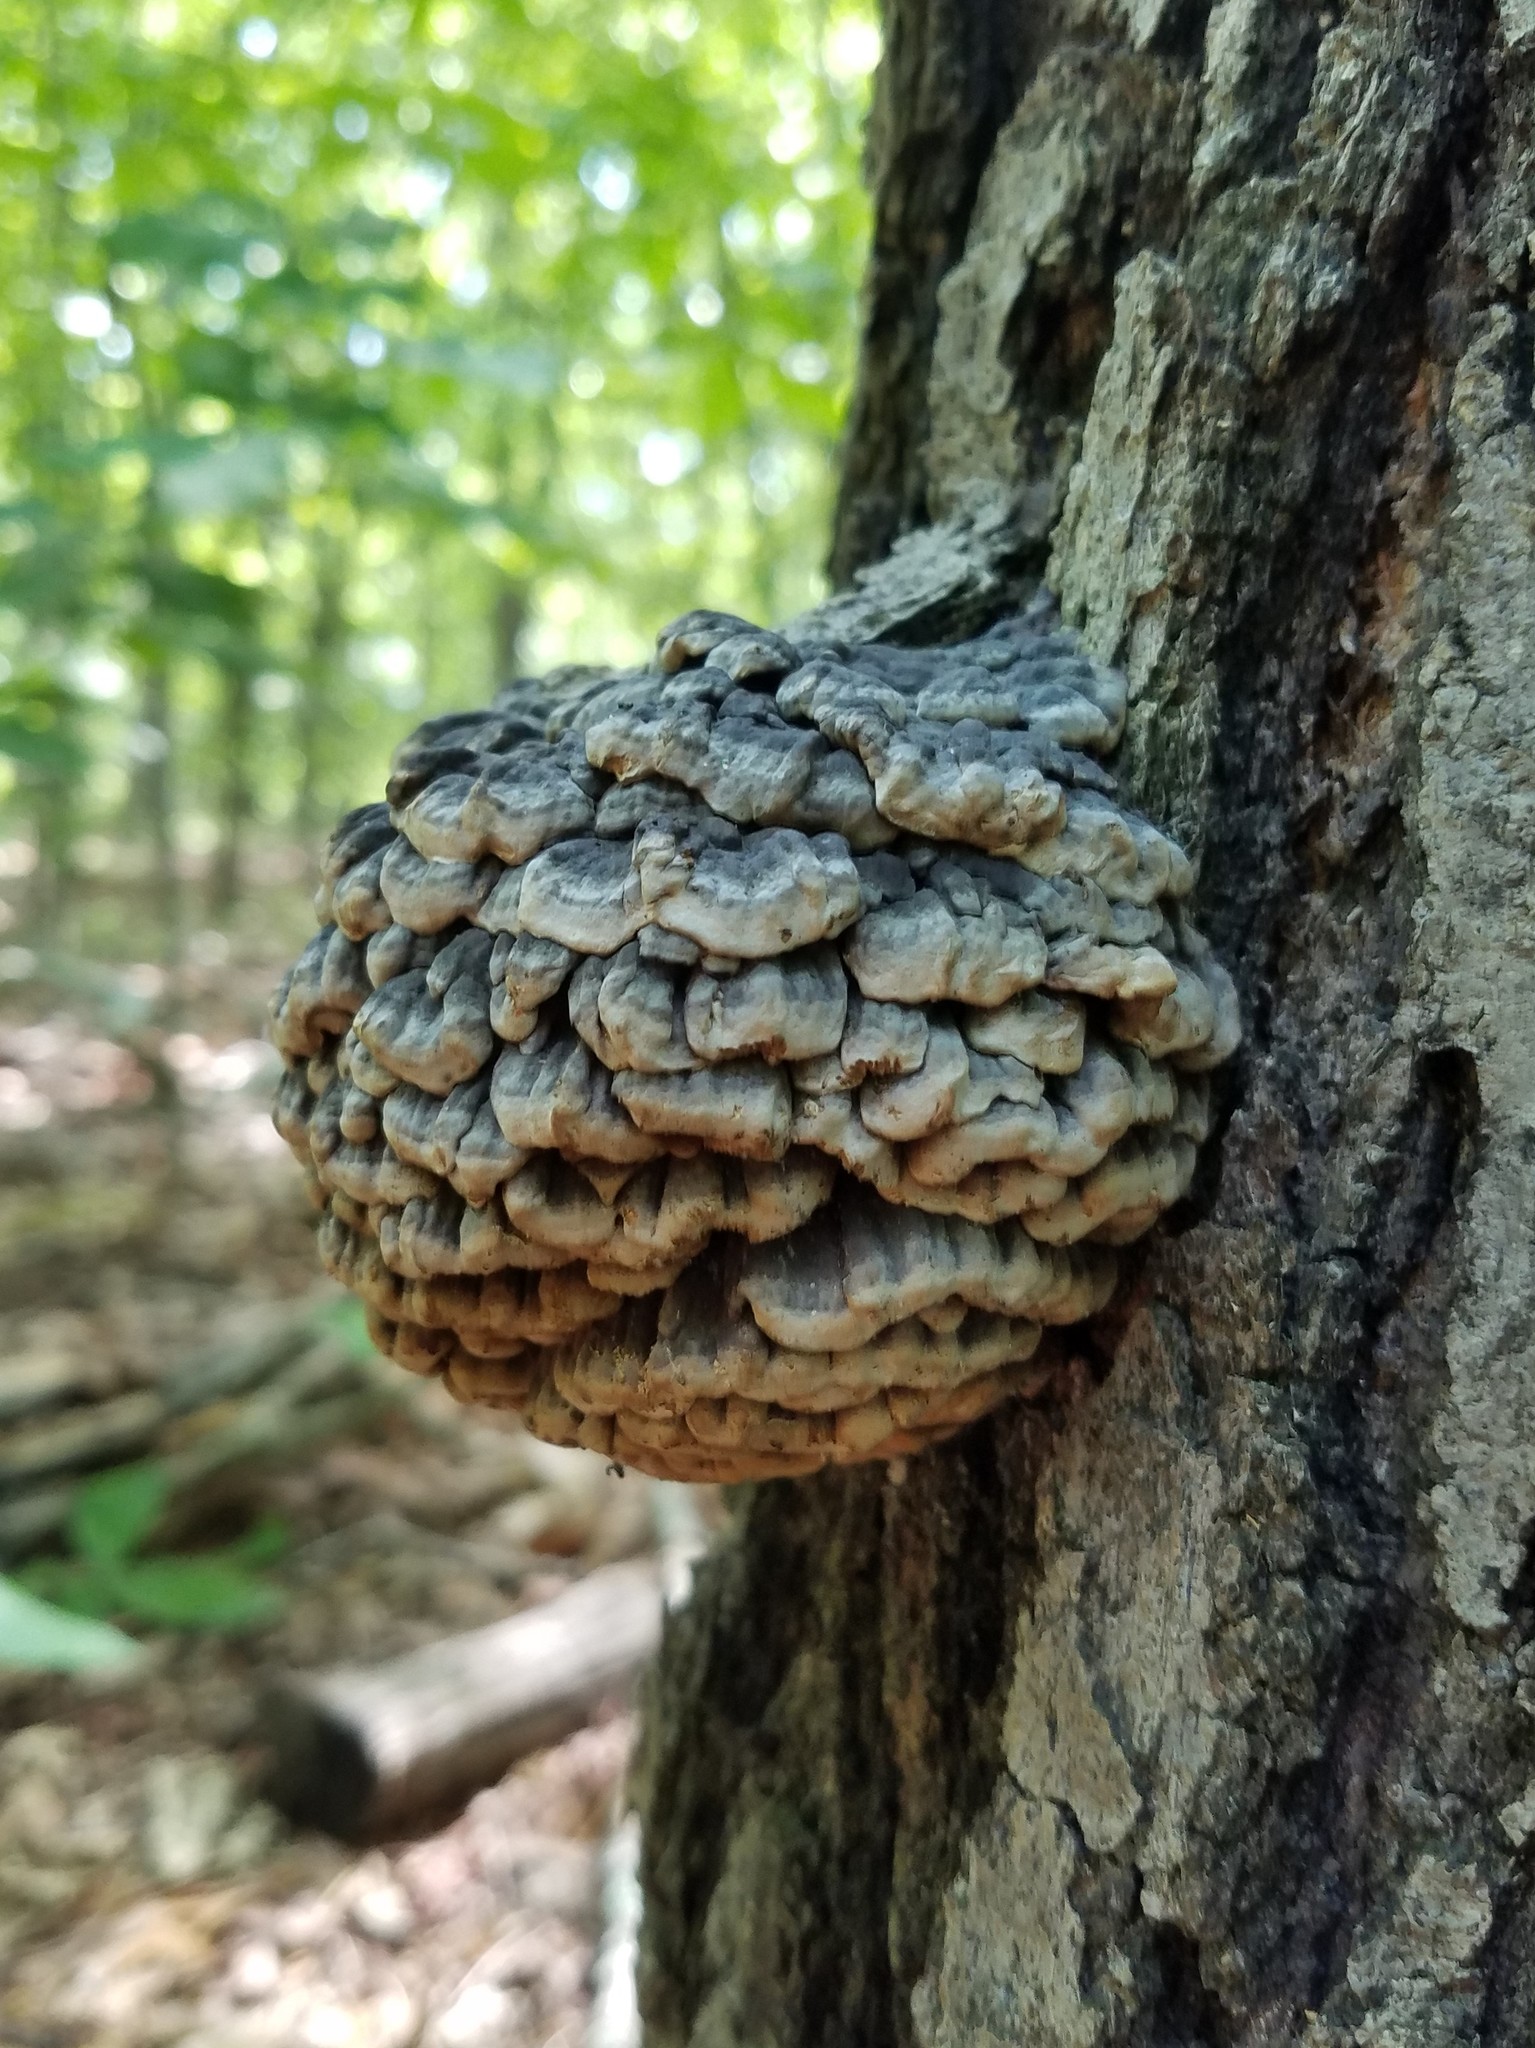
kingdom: Fungi
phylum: Basidiomycota
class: Agaricomycetes
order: Polyporales
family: Polyporaceae
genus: Globifomes
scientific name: Globifomes graveolens
